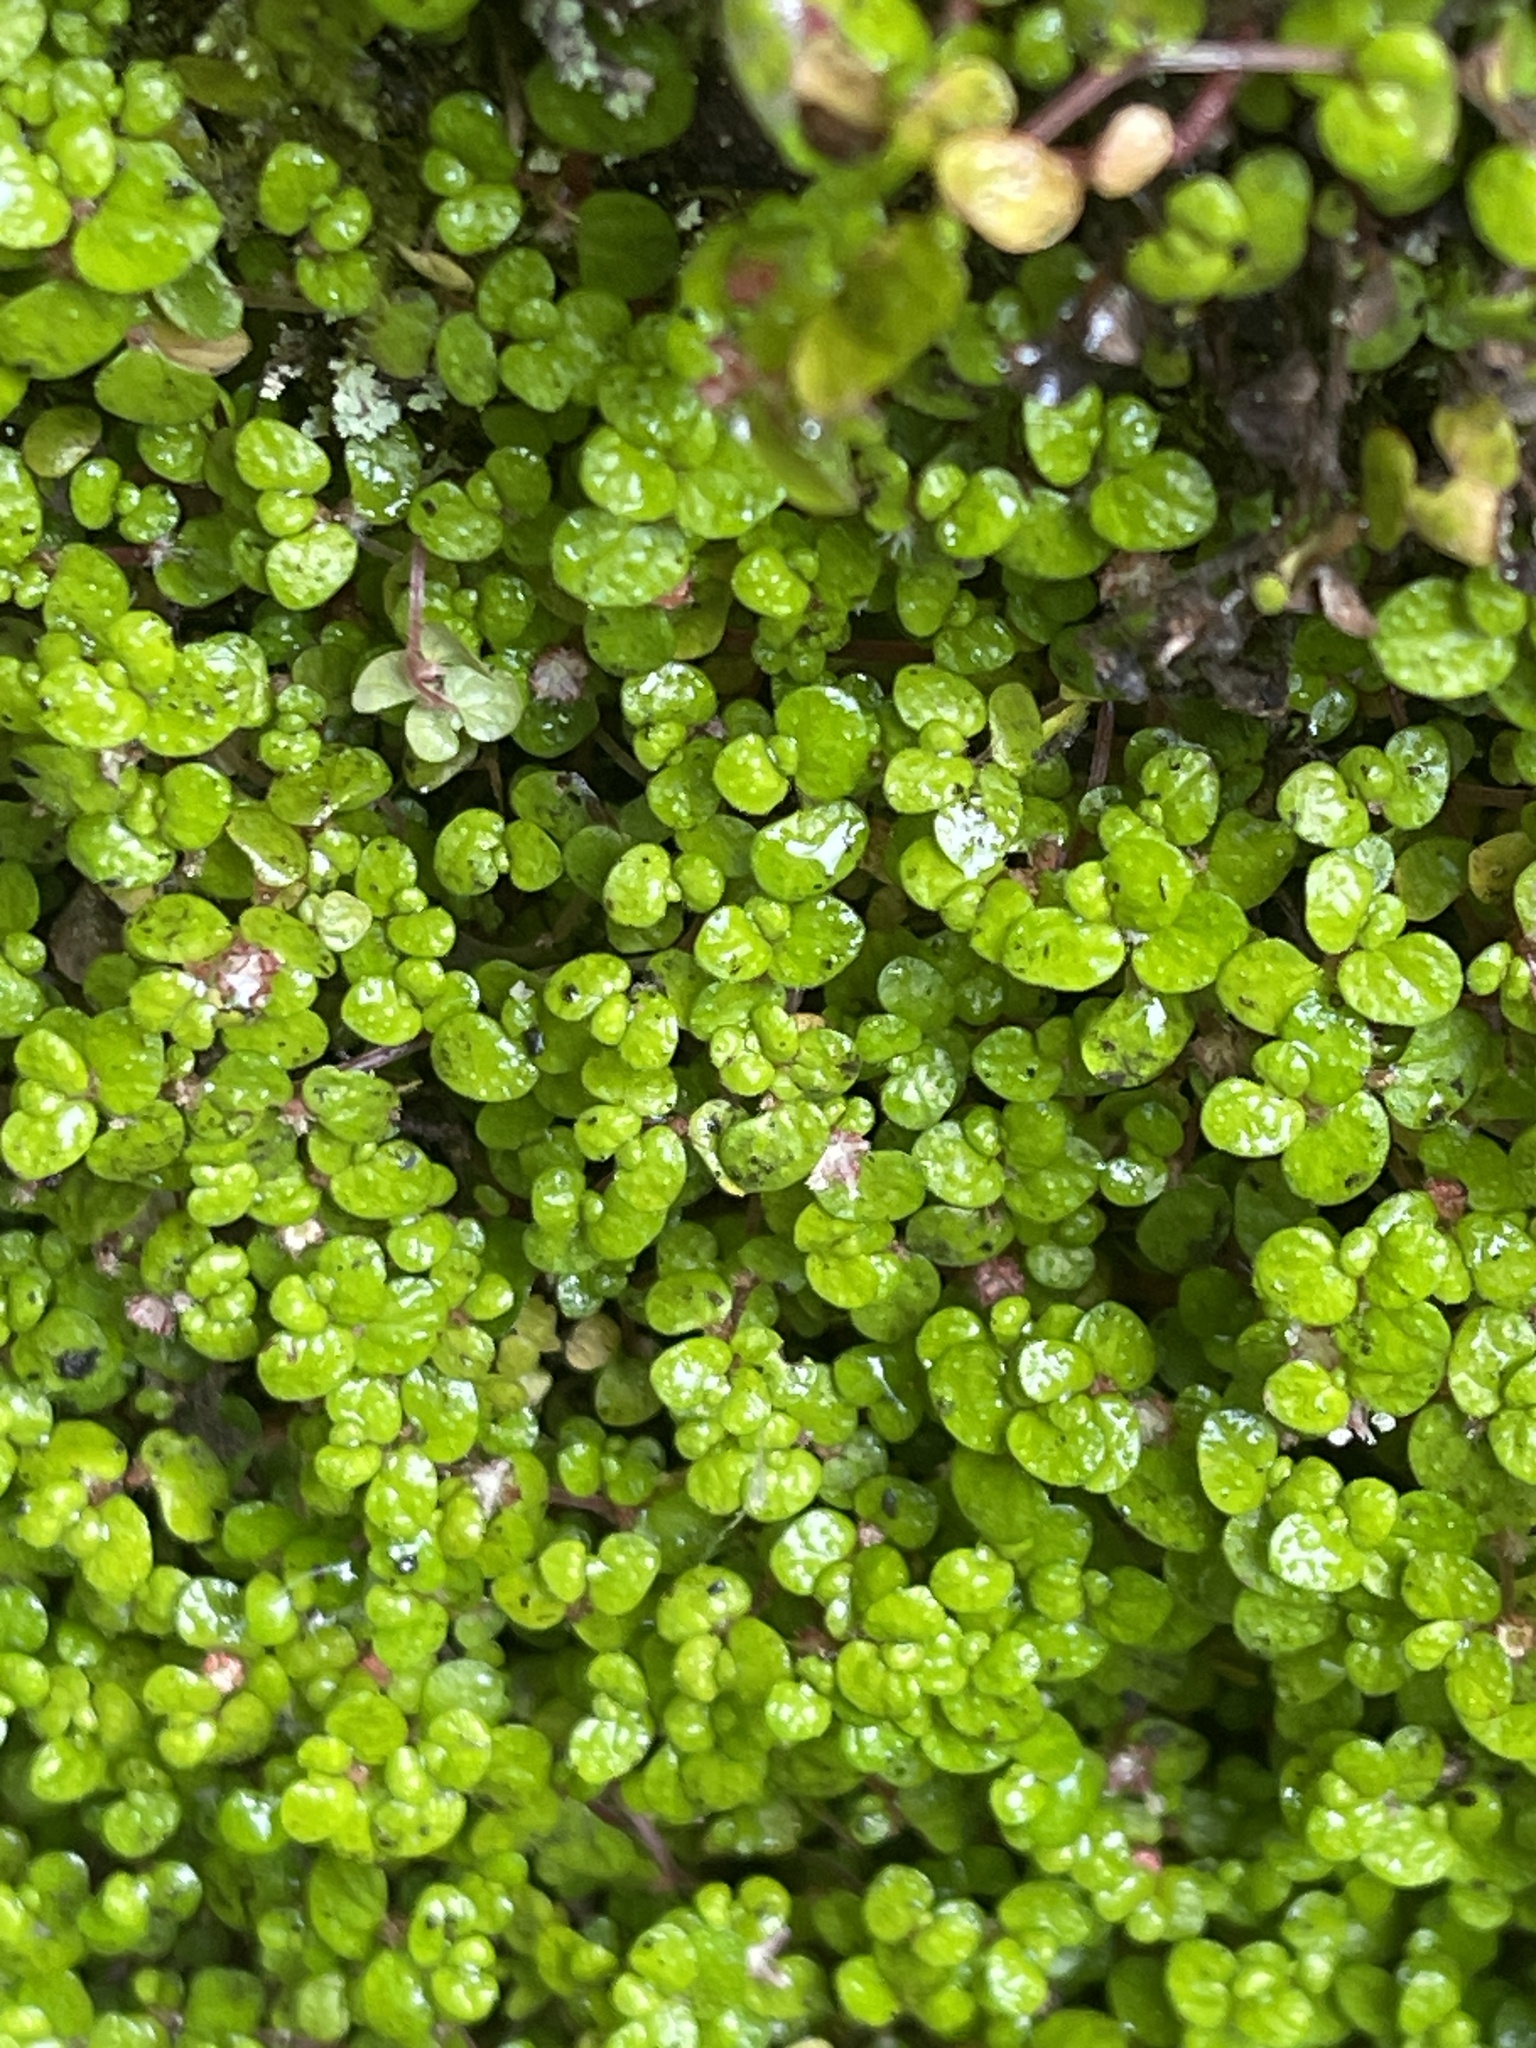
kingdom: Plantae
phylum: Tracheophyta
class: Magnoliopsida
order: Rosales
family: Urticaceae
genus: Soleirolia
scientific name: Soleirolia soleirolii
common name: Mind-your-own-business
